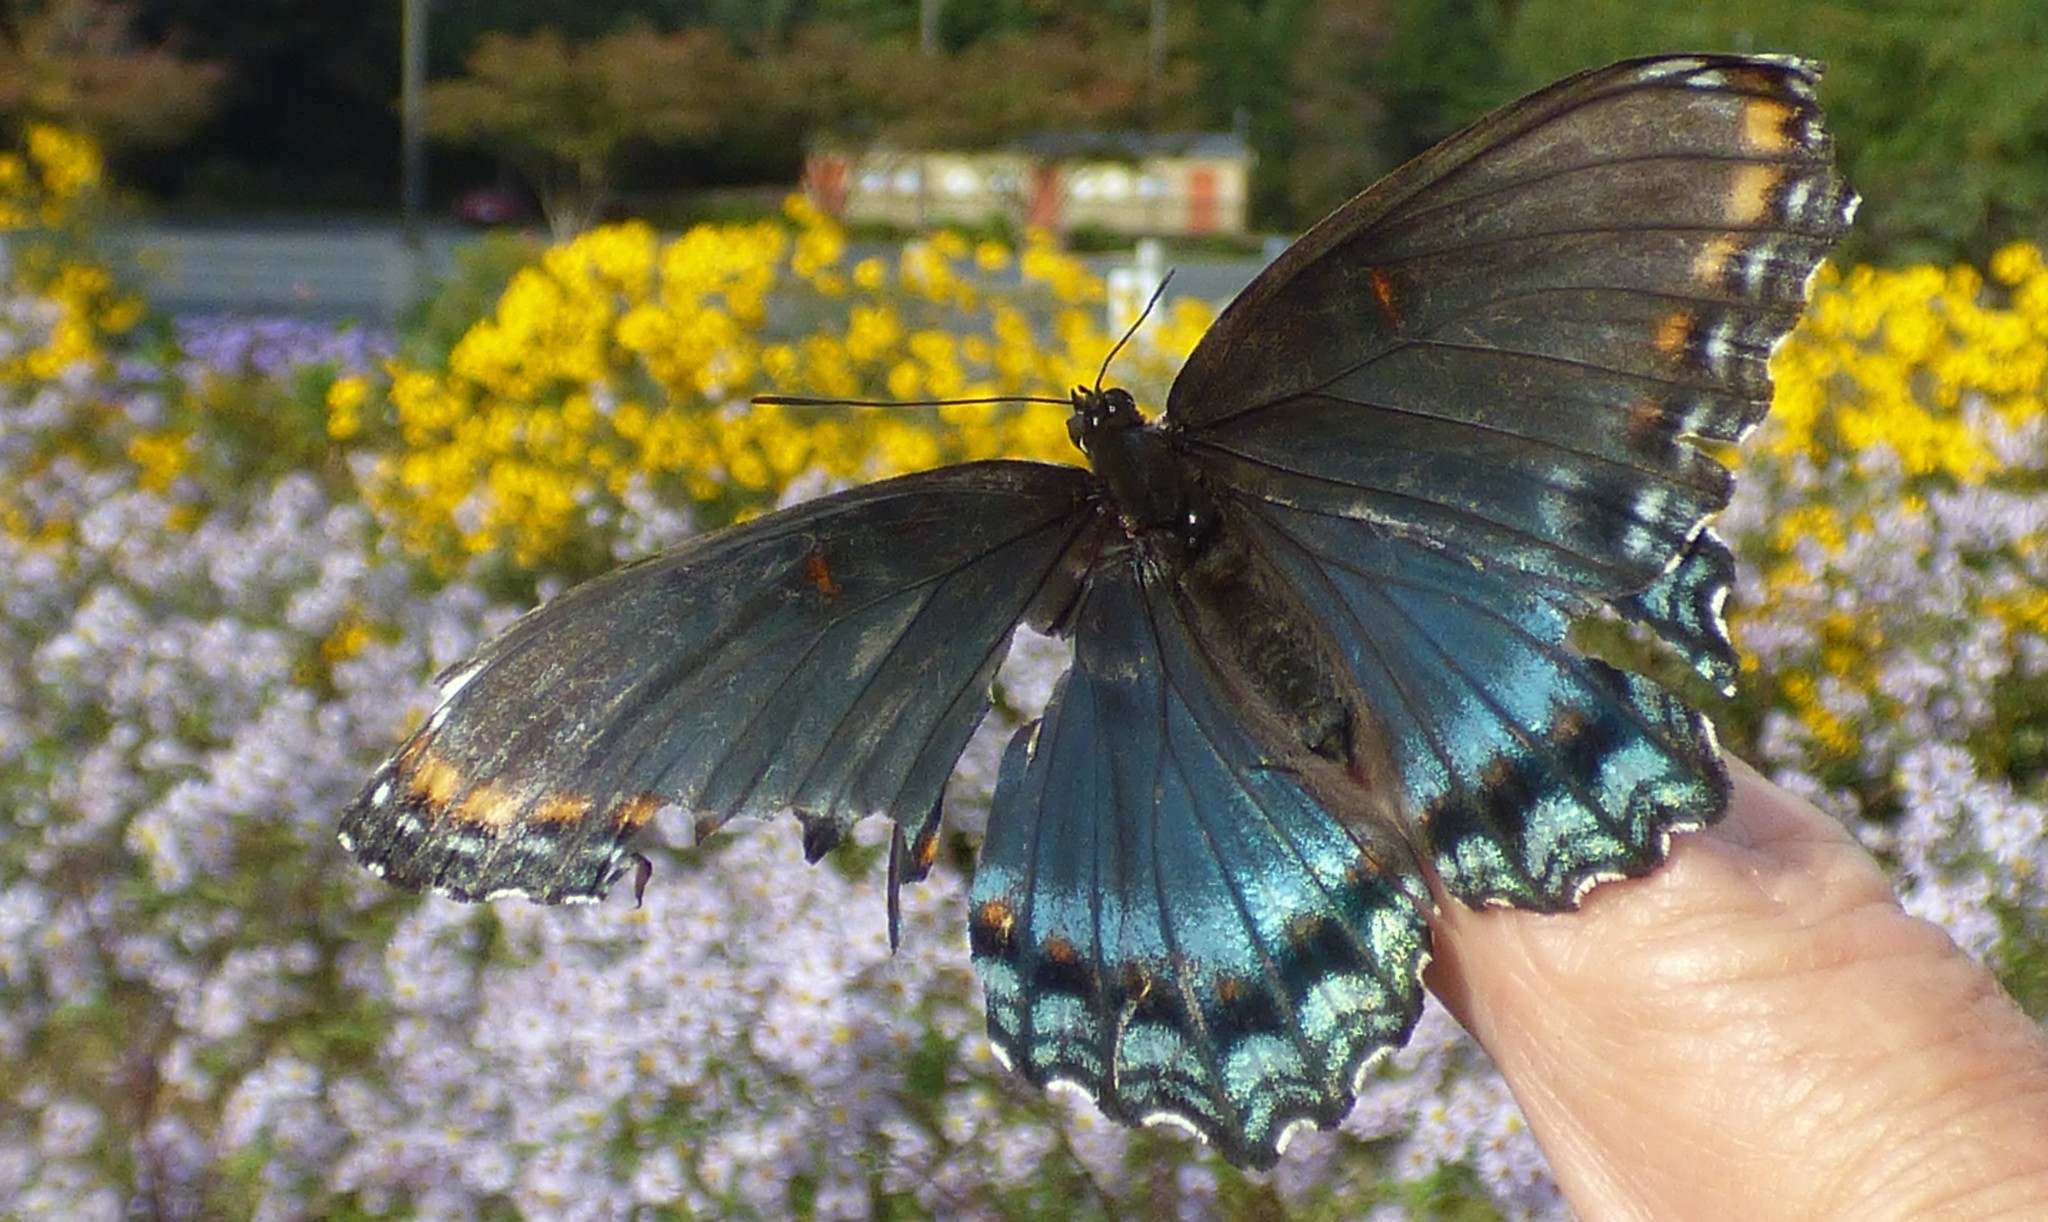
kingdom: Animalia
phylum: Arthropoda
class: Insecta
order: Lepidoptera
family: Nymphalidae
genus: Limenitis
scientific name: Limenitis astyanax
